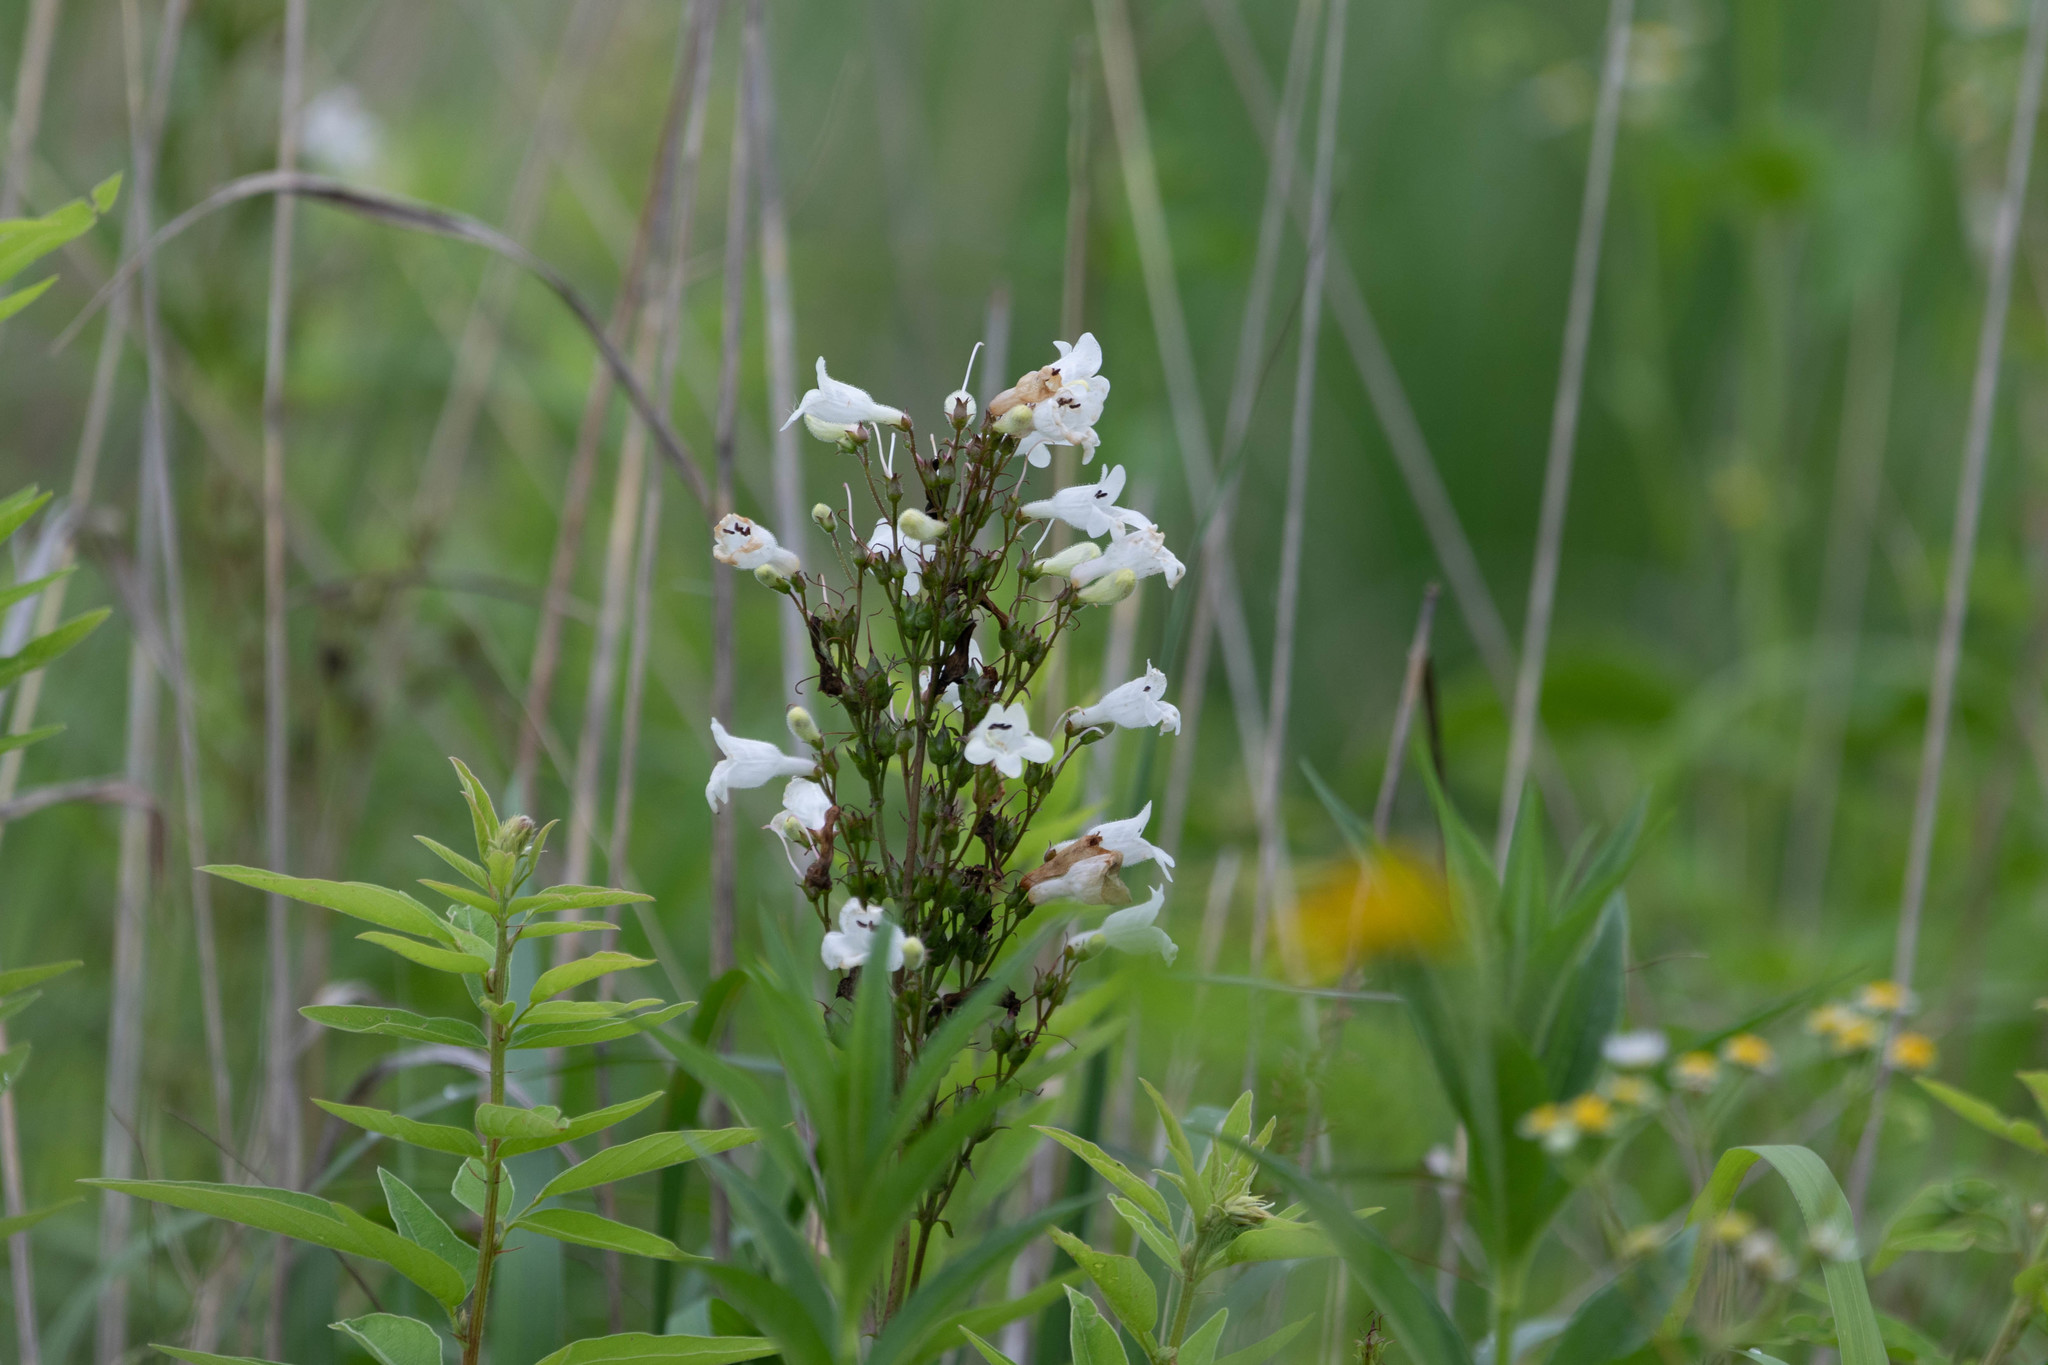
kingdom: Plantae
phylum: Tracheophyta
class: Magnoliopsida
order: Lamiales
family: Plantaginaceae
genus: Penstemon
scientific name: Penstemon digitalis
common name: Foxglove beardtongue
